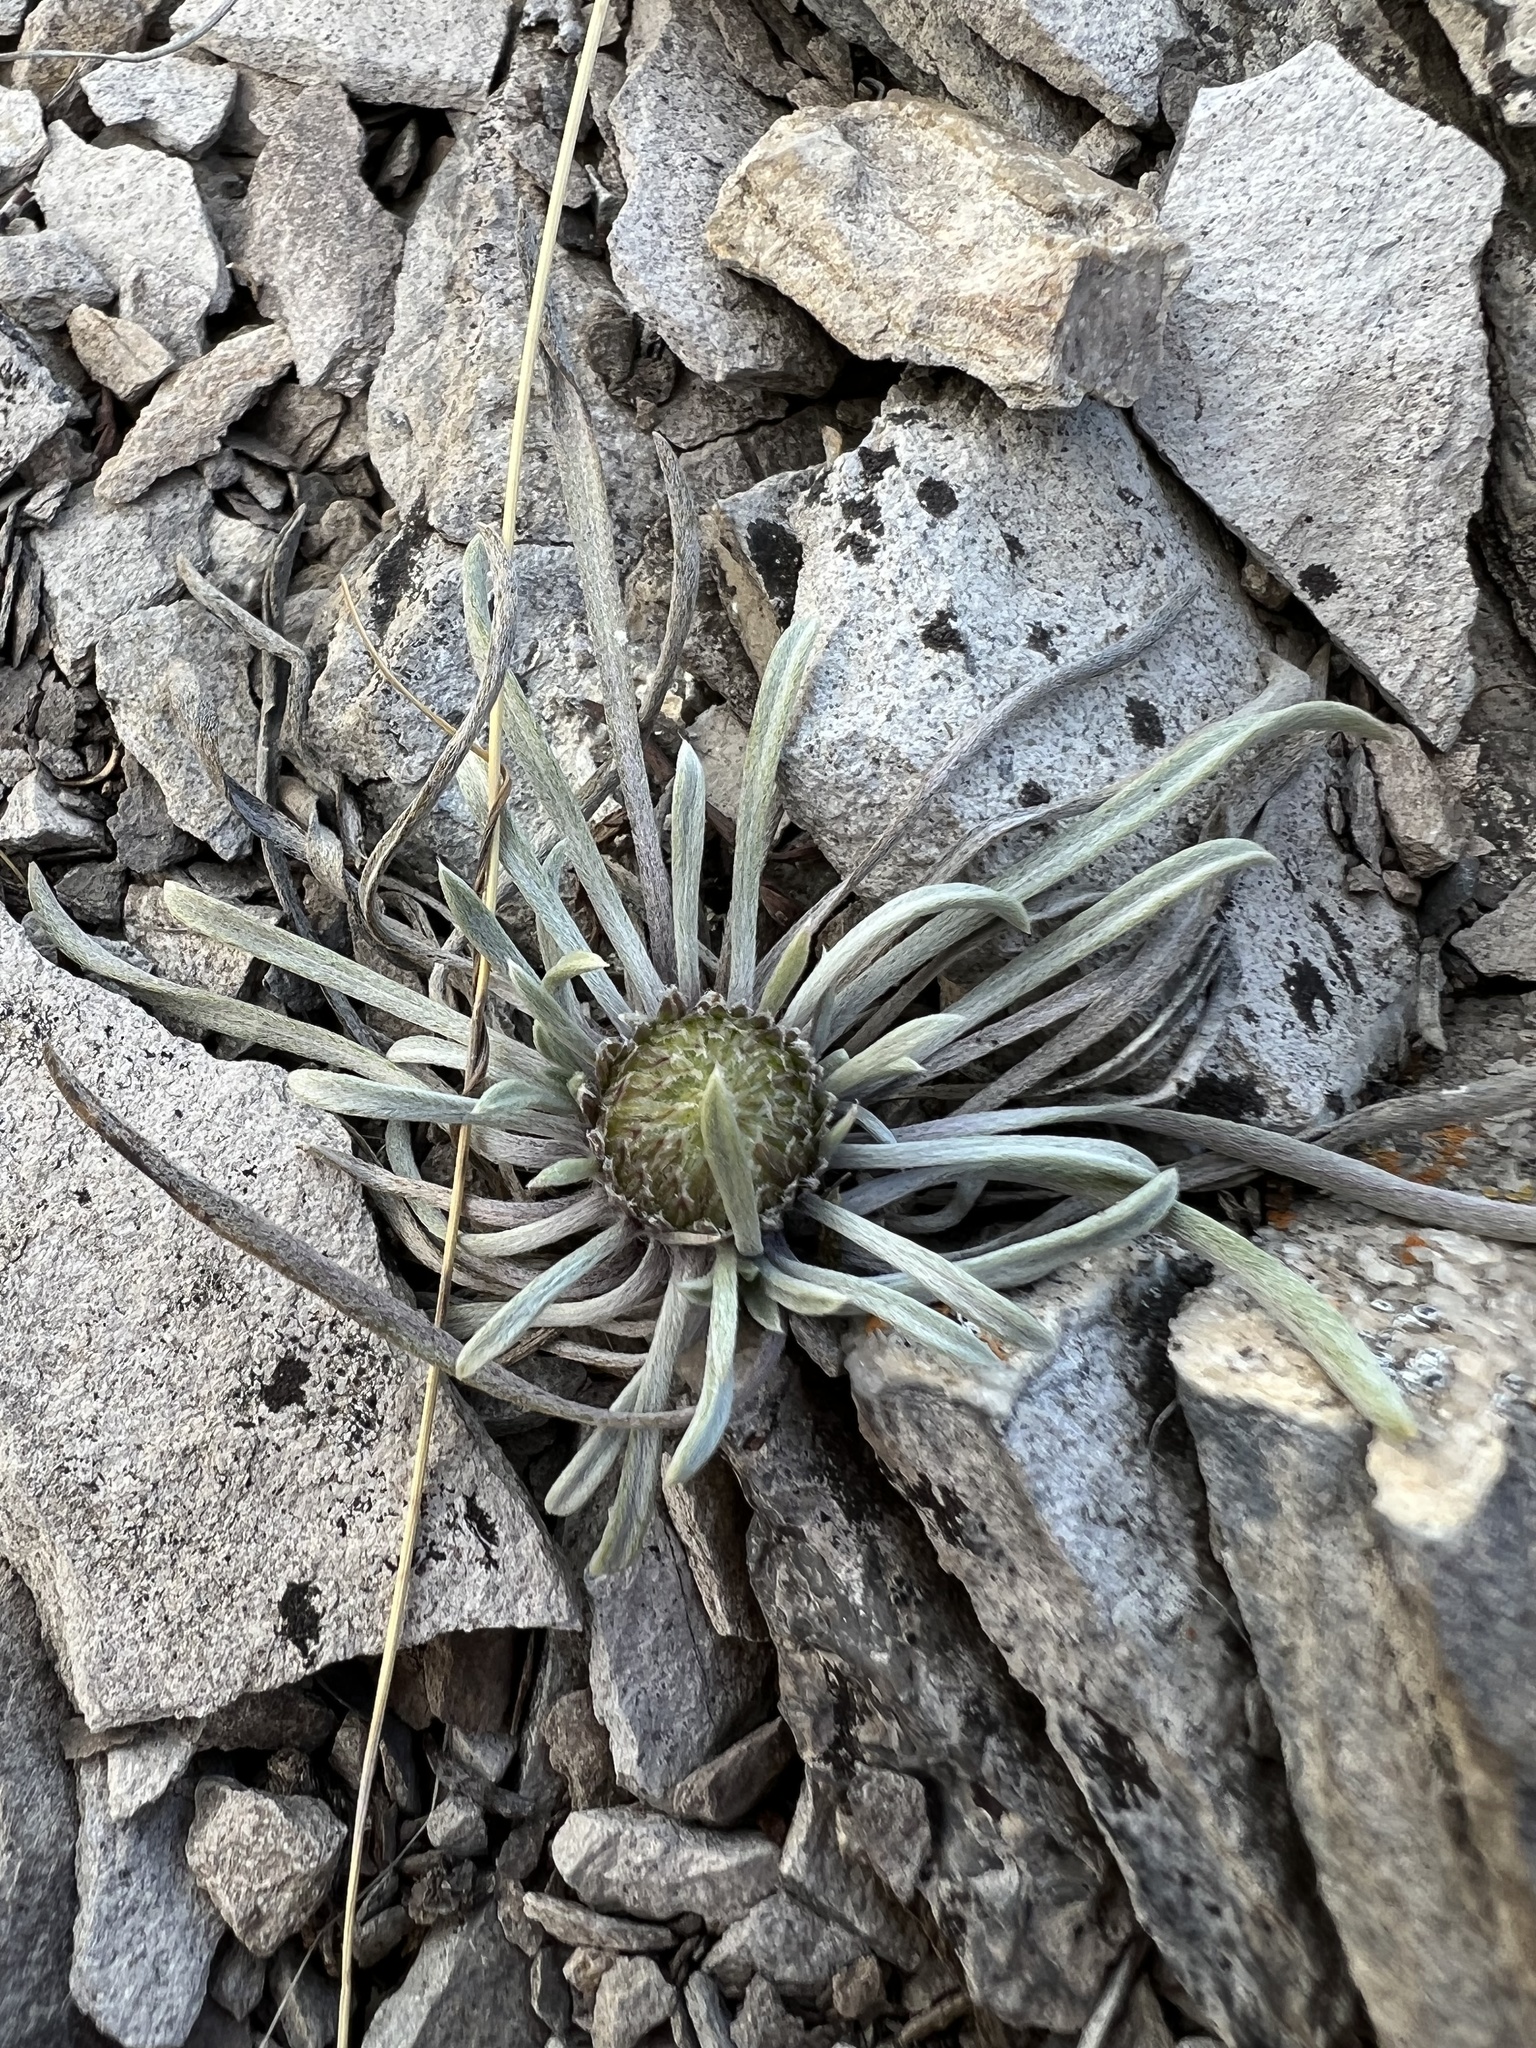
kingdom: Plantae
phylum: Tracheophyta
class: Magnoliopsida
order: Asterales
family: Asteraceae
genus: Townsendia
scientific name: Townsendia hookeri
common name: Hooker's townsend daisy
